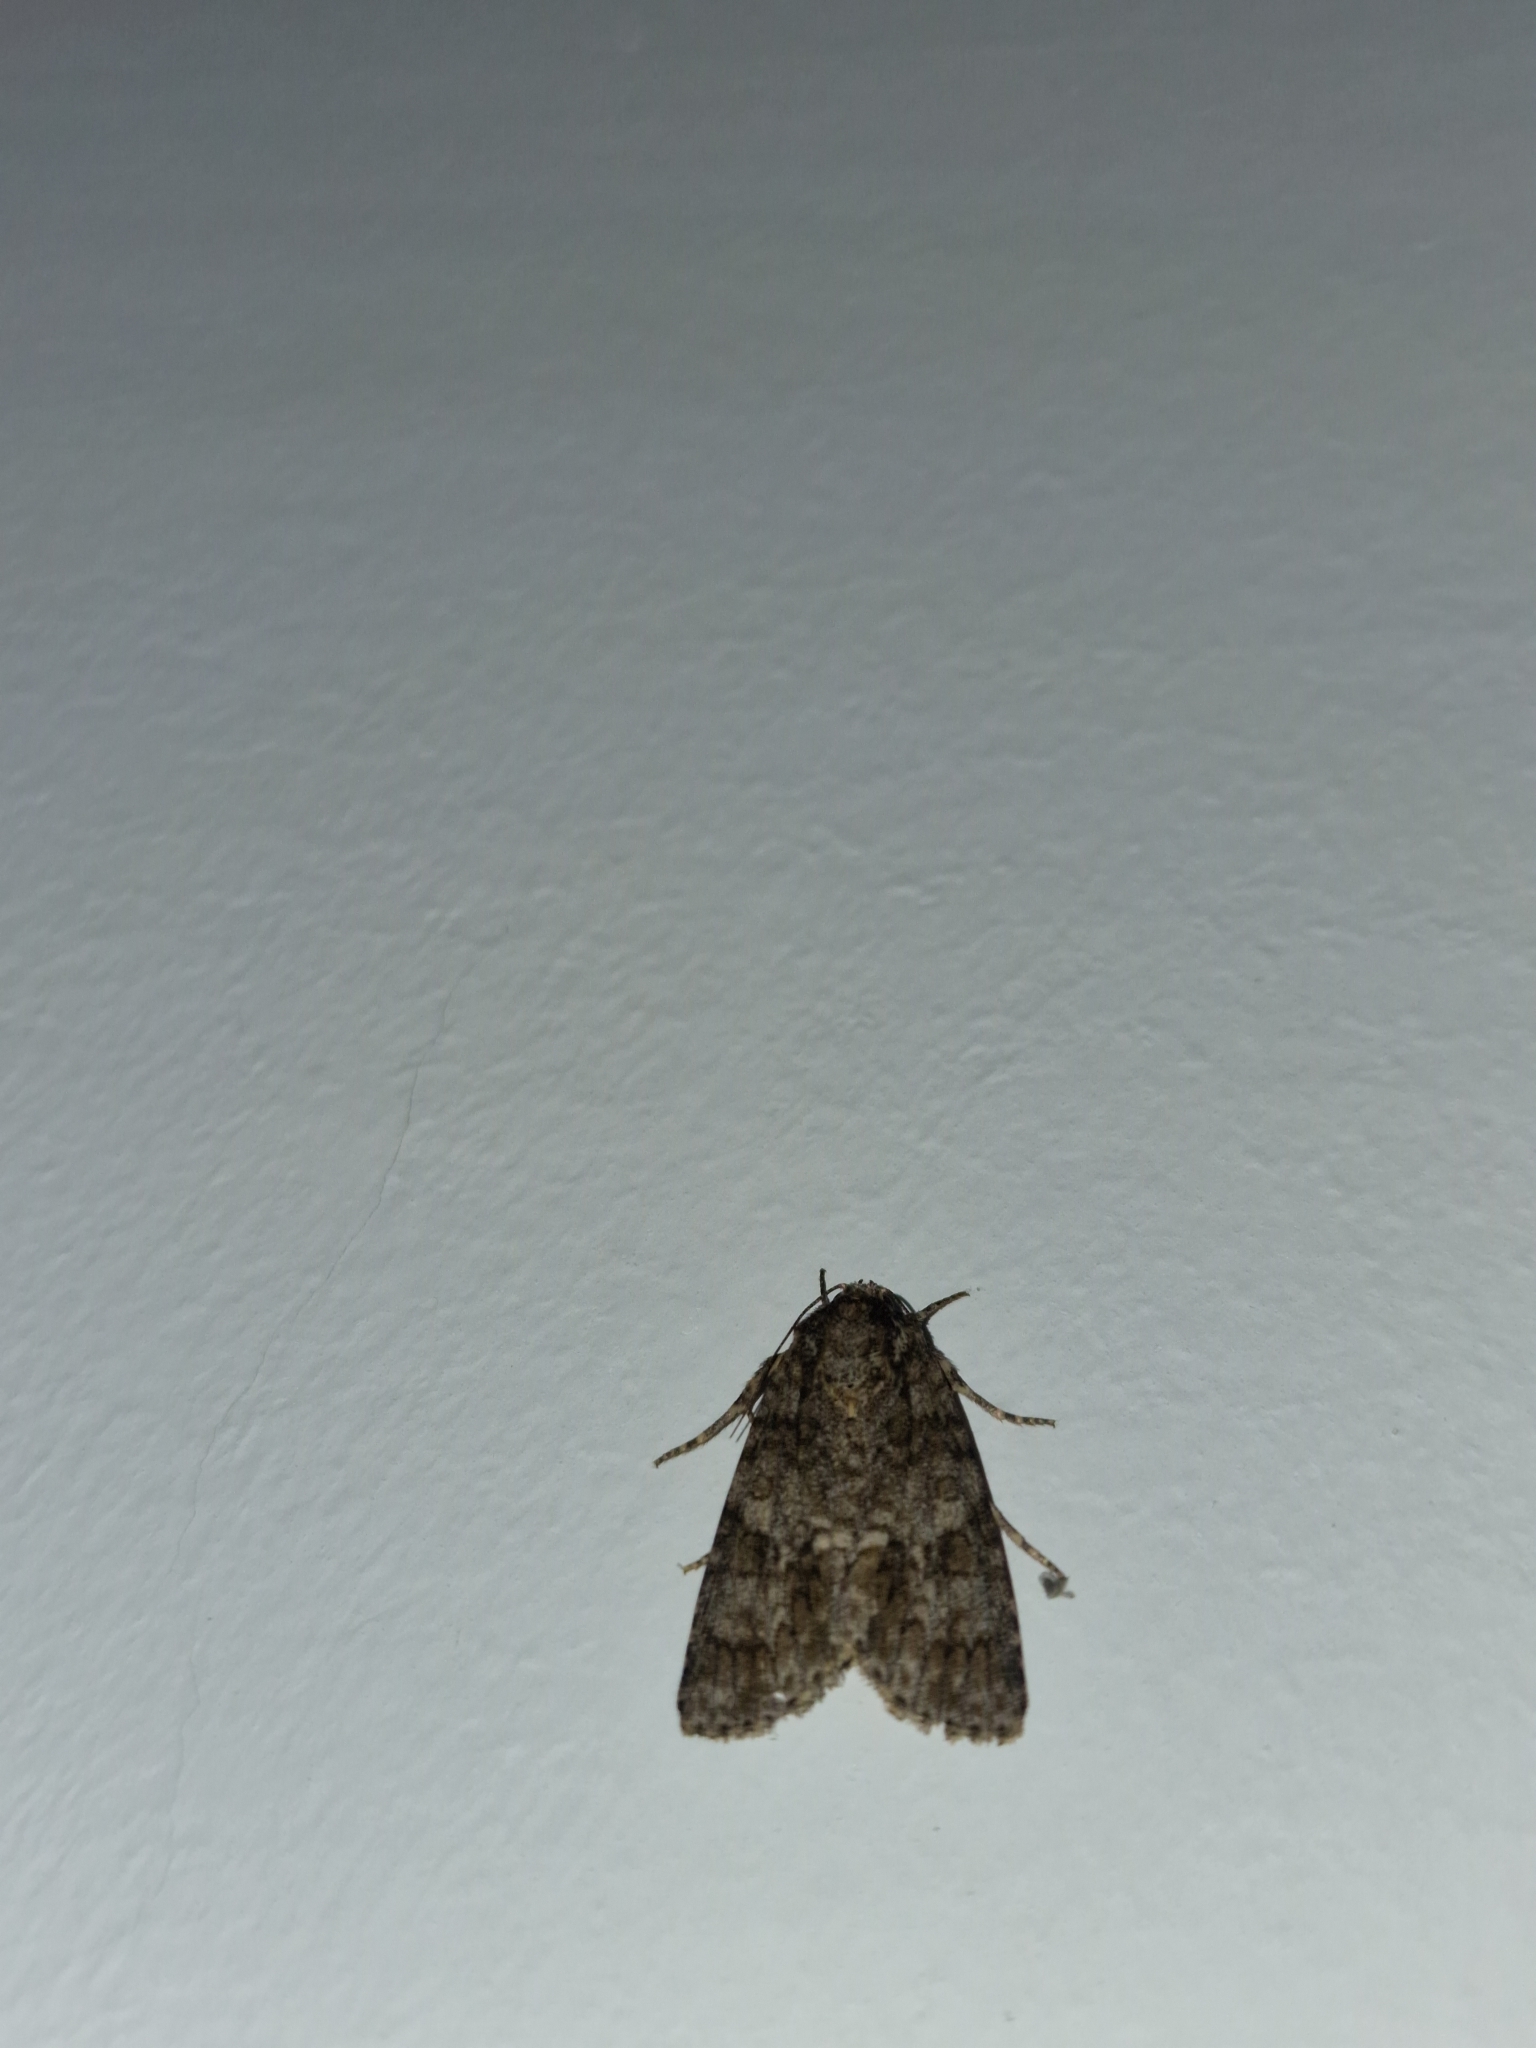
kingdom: Animalia
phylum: Arthropoda
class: Insecta
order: Lepidoptera
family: Noctuidae
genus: Acronicta
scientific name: Acronicta rumicis
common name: Knot grass
